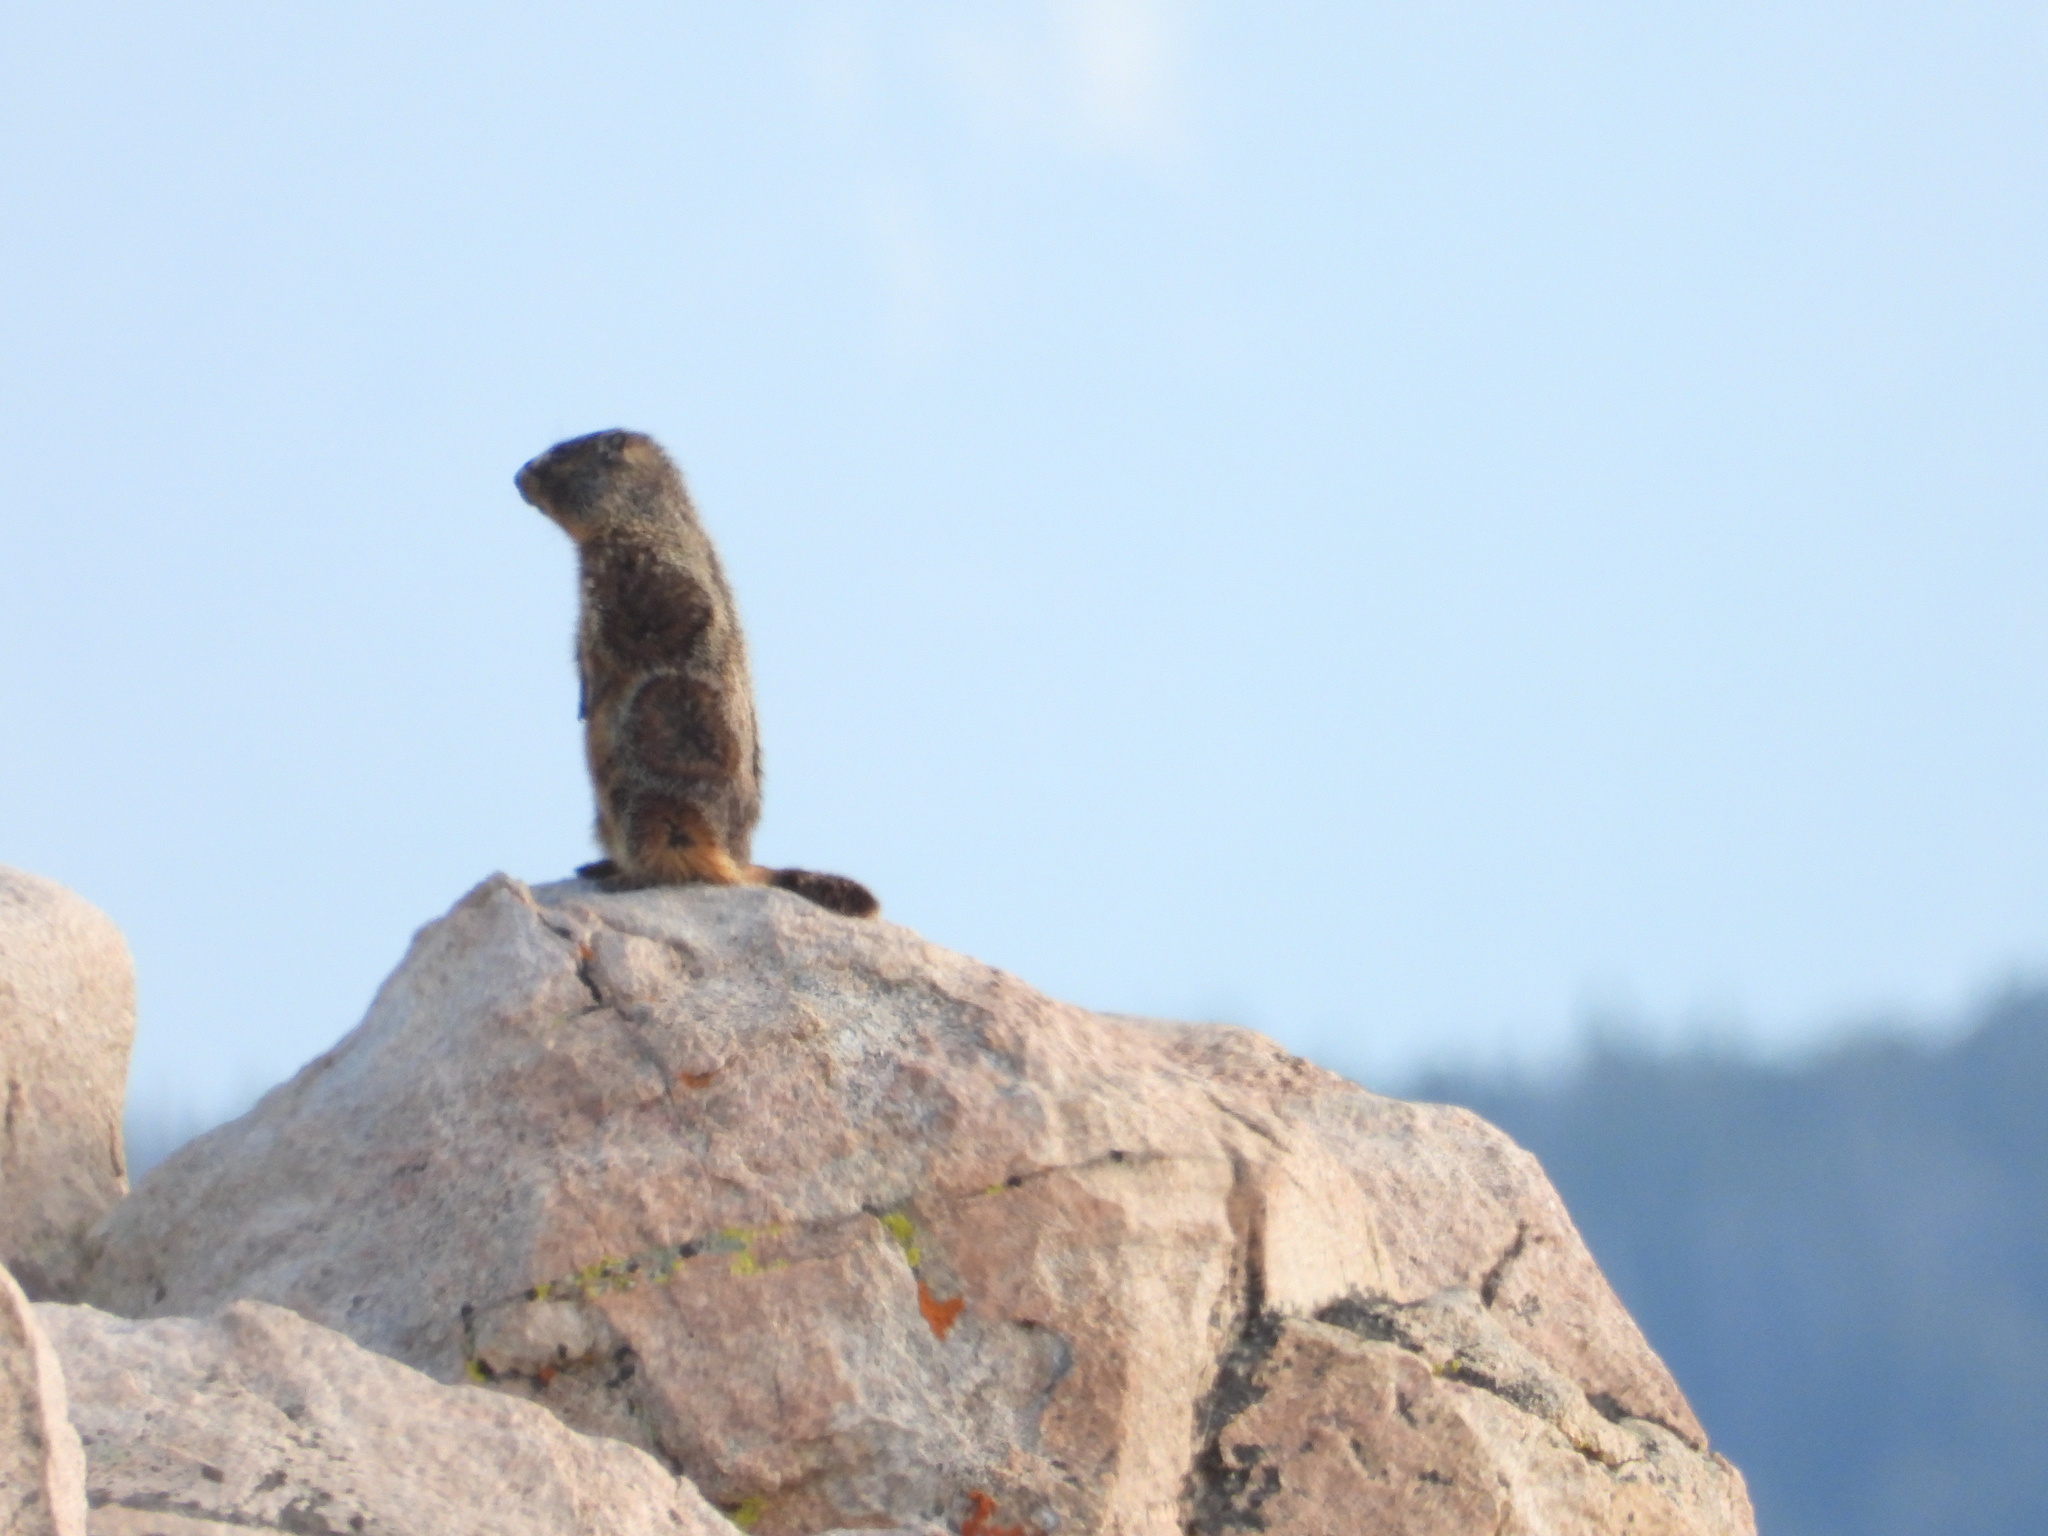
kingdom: Animalia
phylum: Chordata
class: Mammalia
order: Rodentia
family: Sciuridae
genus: Marmota
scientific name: Marmota flaviventris
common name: Yellow-bellied marmot
